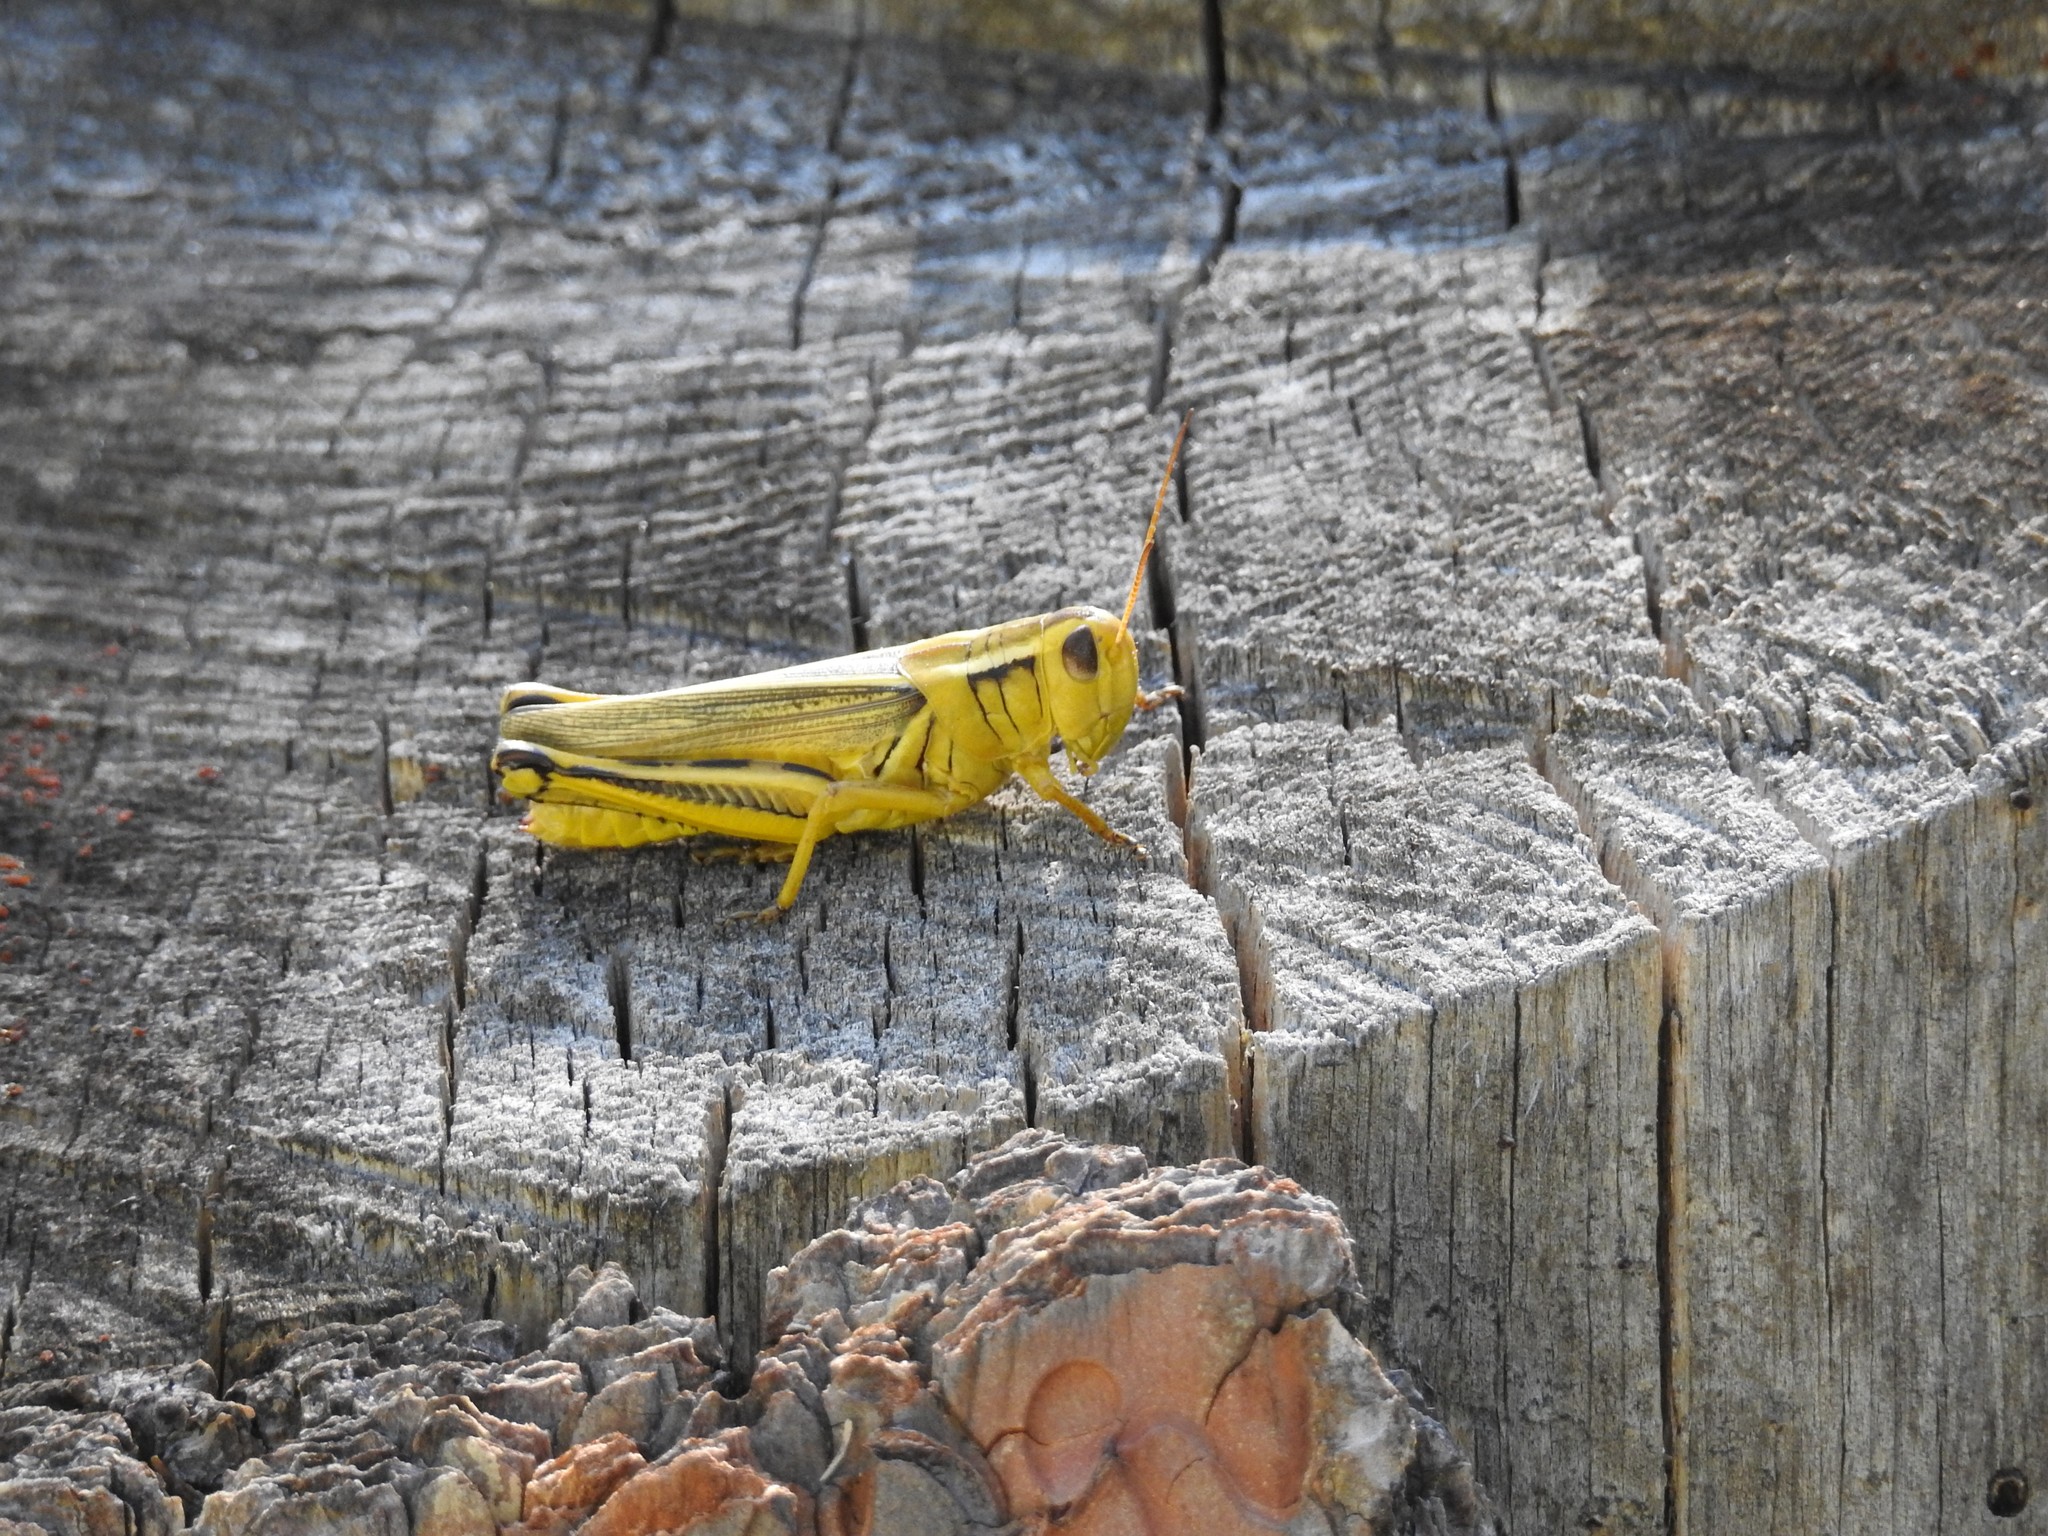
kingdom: Animalia
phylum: Arthropoda
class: Insecta
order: Orthoptera
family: Acrididae
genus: Melanoplus
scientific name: Melanoplus bivittatus
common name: Two-striped grasshopper
